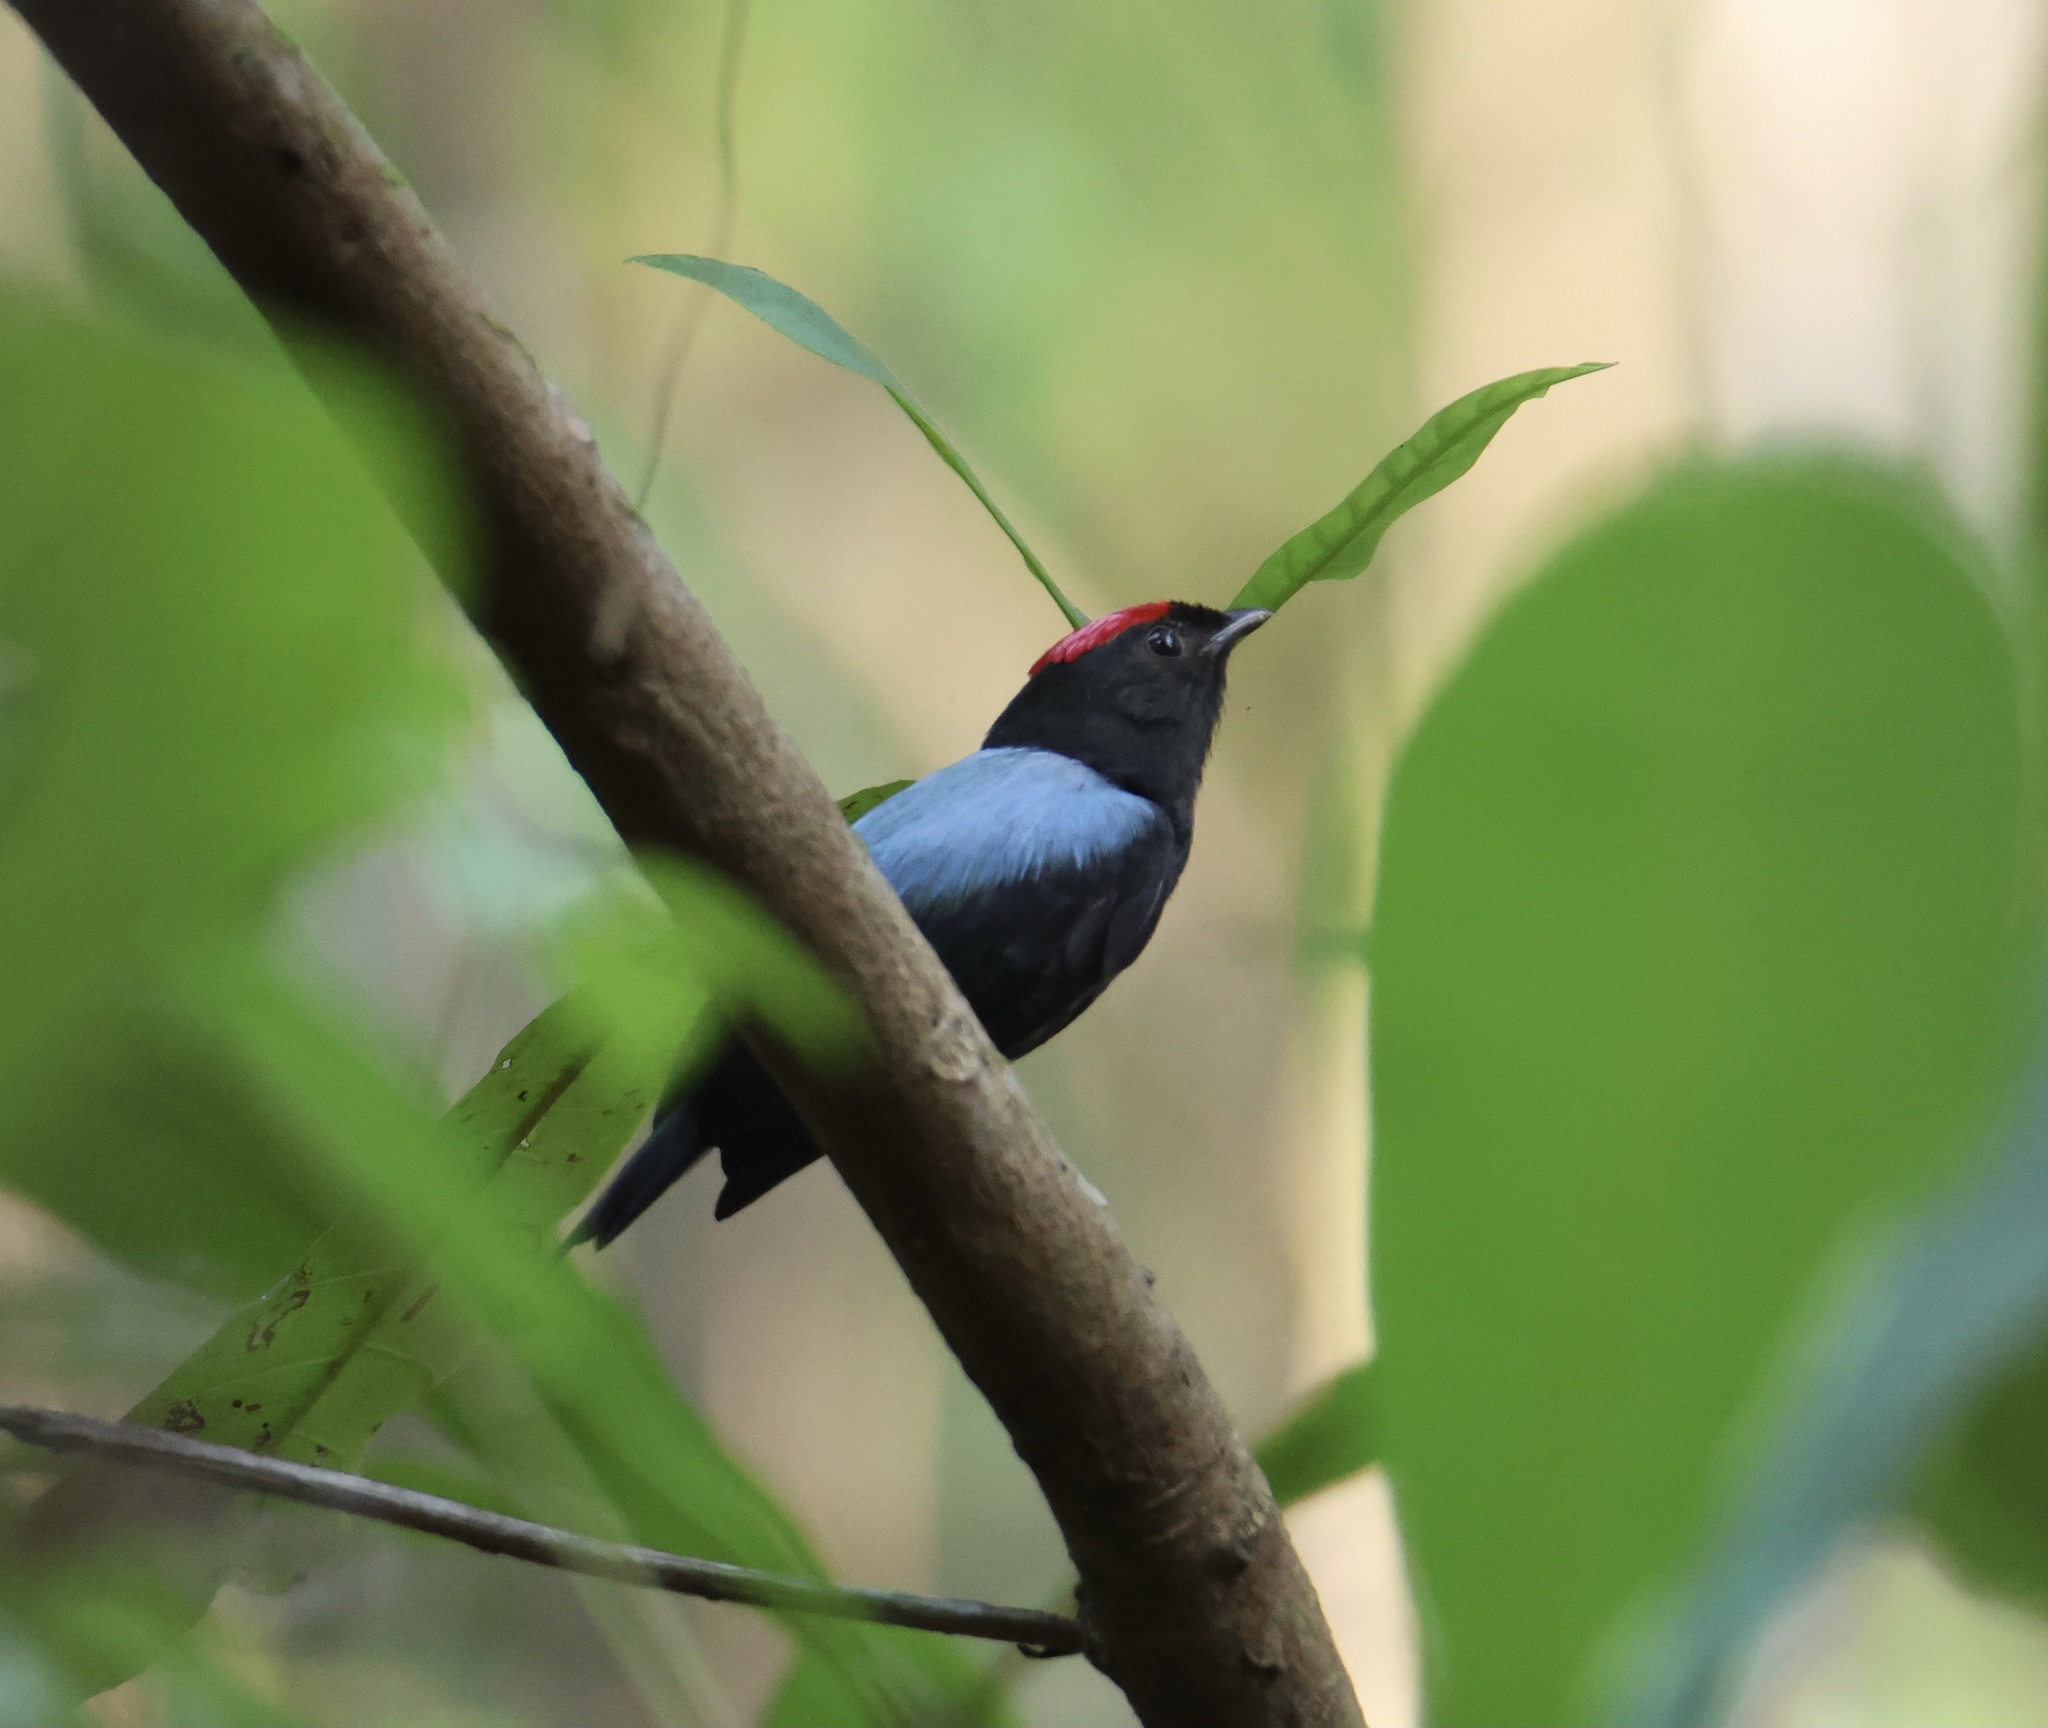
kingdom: Animalia
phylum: Chordata
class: Aves
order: Passeriformes
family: Pipridae
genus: Chiroxiphia
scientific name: Chiroxiphia lanceolata
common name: Lance-tailed manakin
